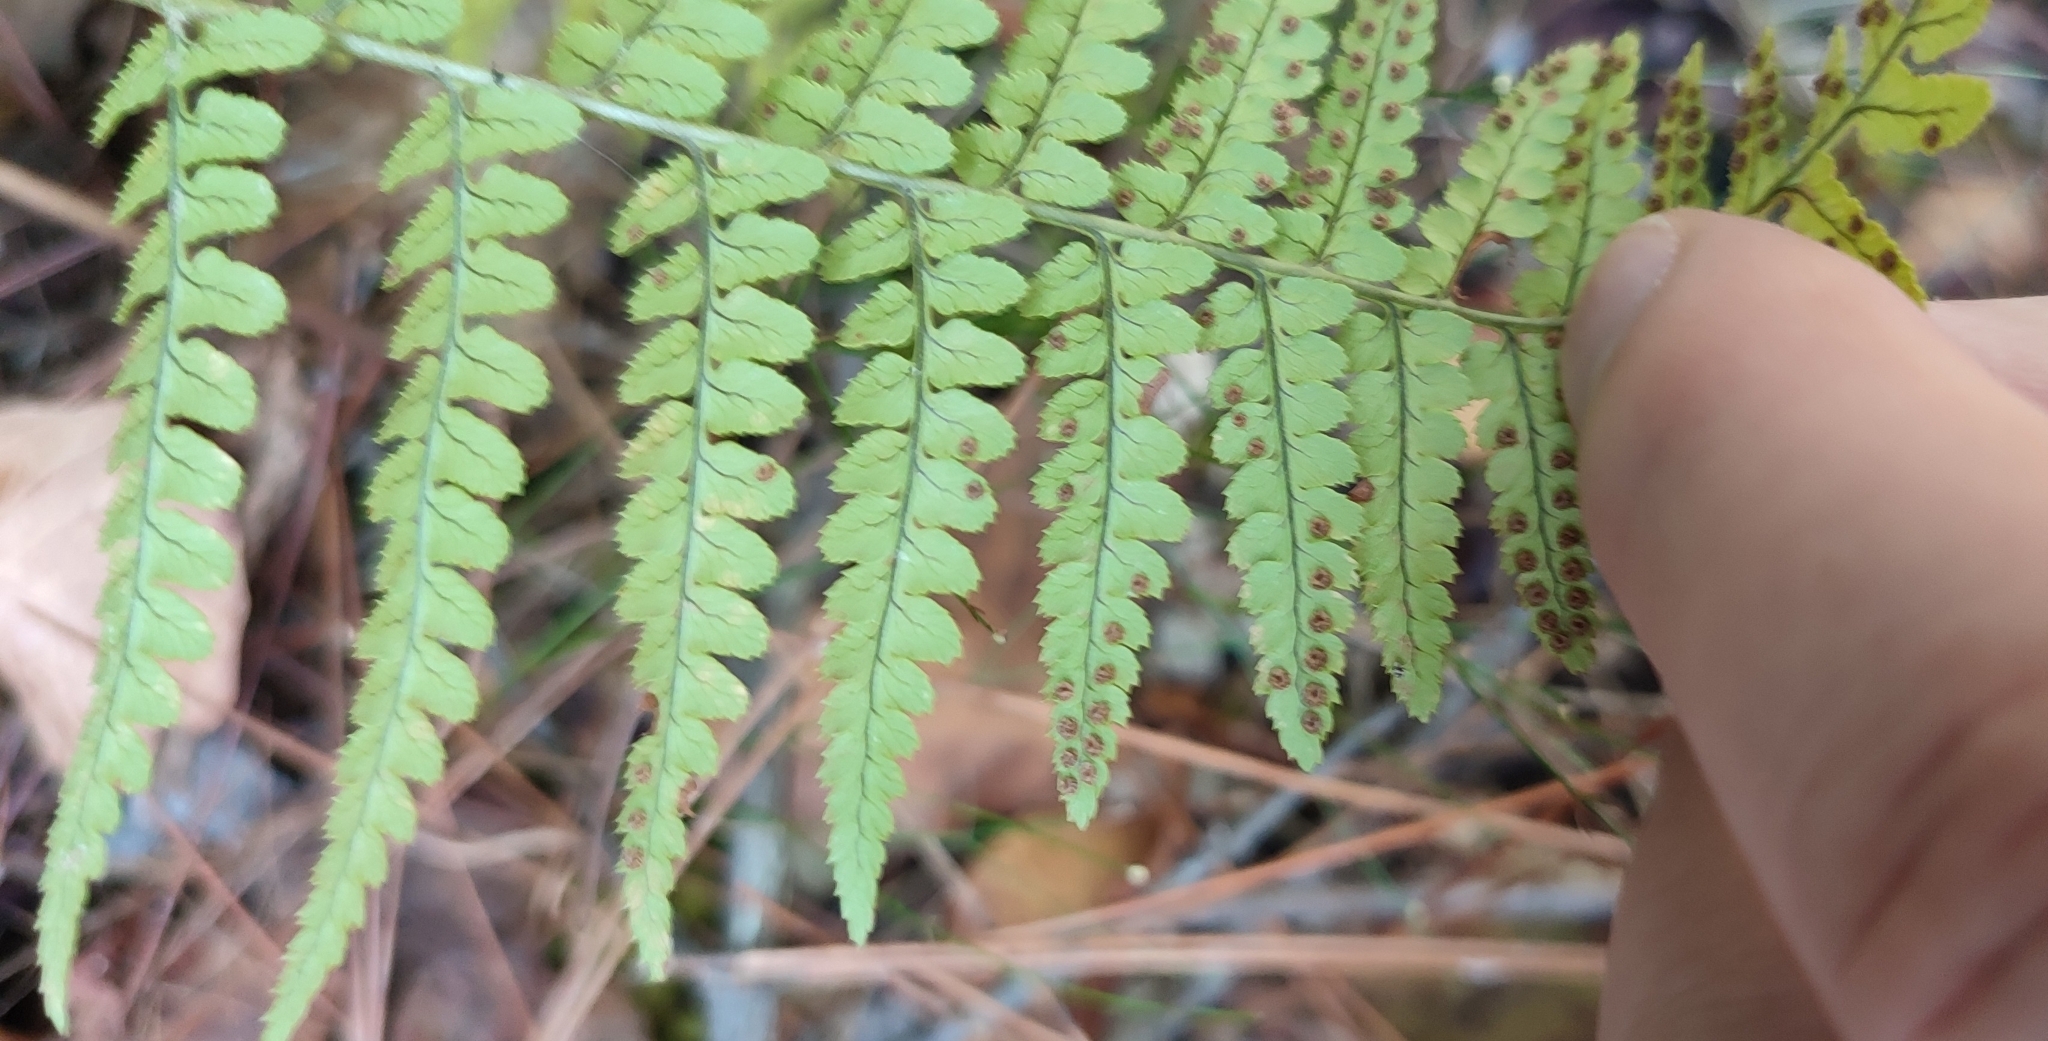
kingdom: Plantae
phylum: Tracheophyta
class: Polypodiopsida
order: Polypodiales
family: Dryopteridaceae
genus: Dryopteris
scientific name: Dryopteris pallida
